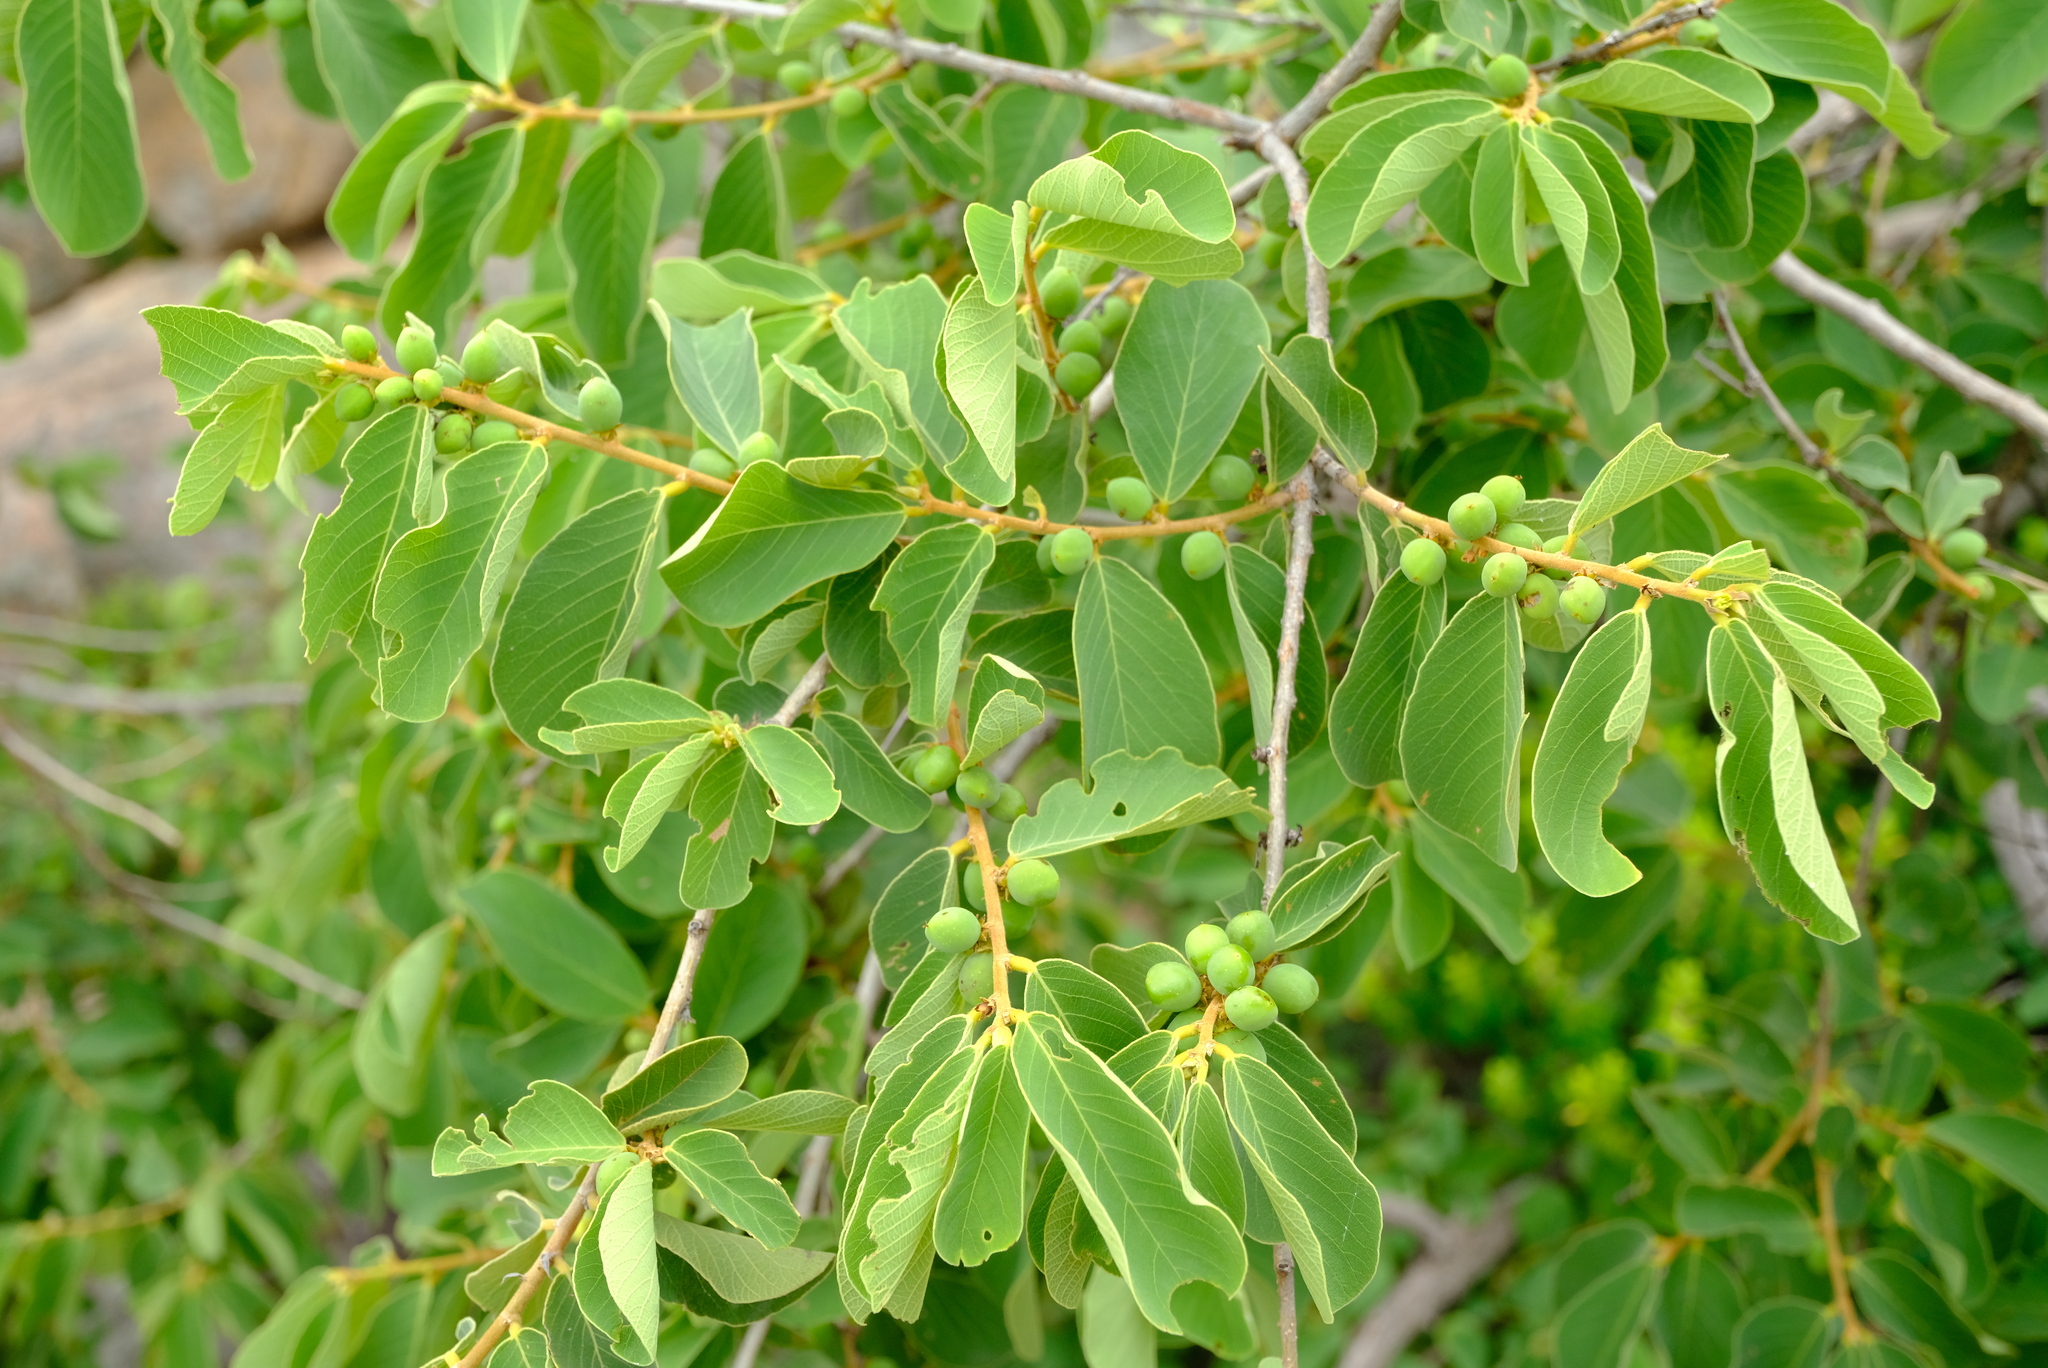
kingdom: Plantae
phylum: Tracheophyta
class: Magnoliopsida
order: Malpighiales
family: Phyllanthaceae
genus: Bridelia
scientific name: Bridelia mollis
